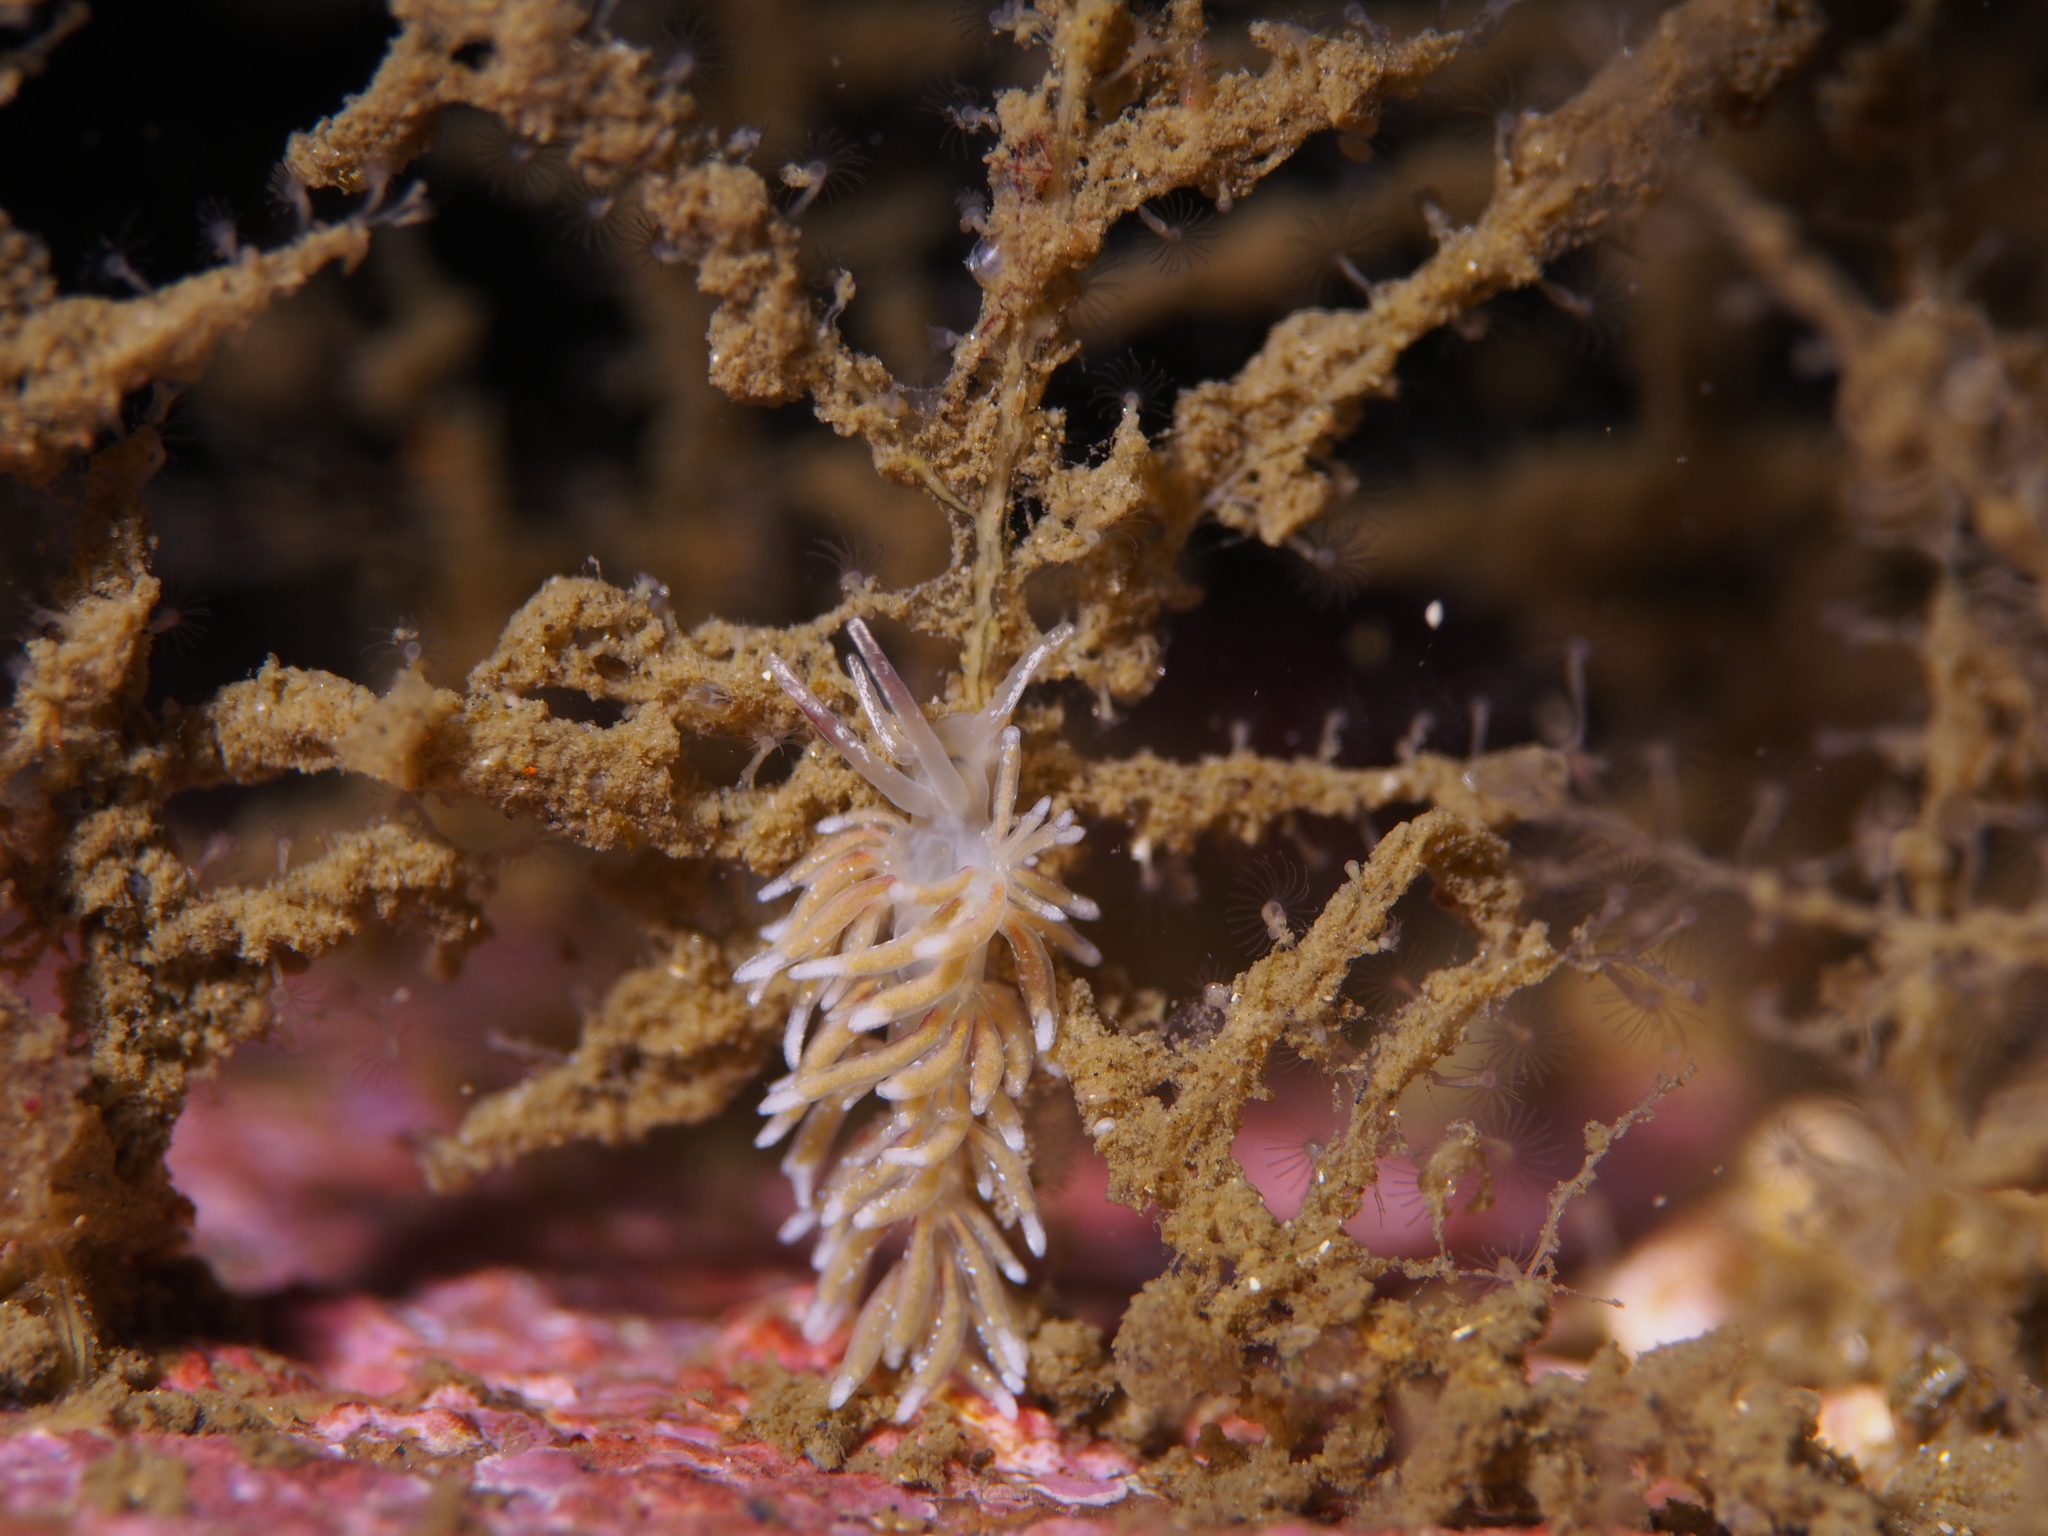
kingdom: Animalia
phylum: Mollusca
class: Gastropoda
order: Nudibranchia
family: Trinchesiidae
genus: Rubramoena
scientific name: Rubramoena rubescens
